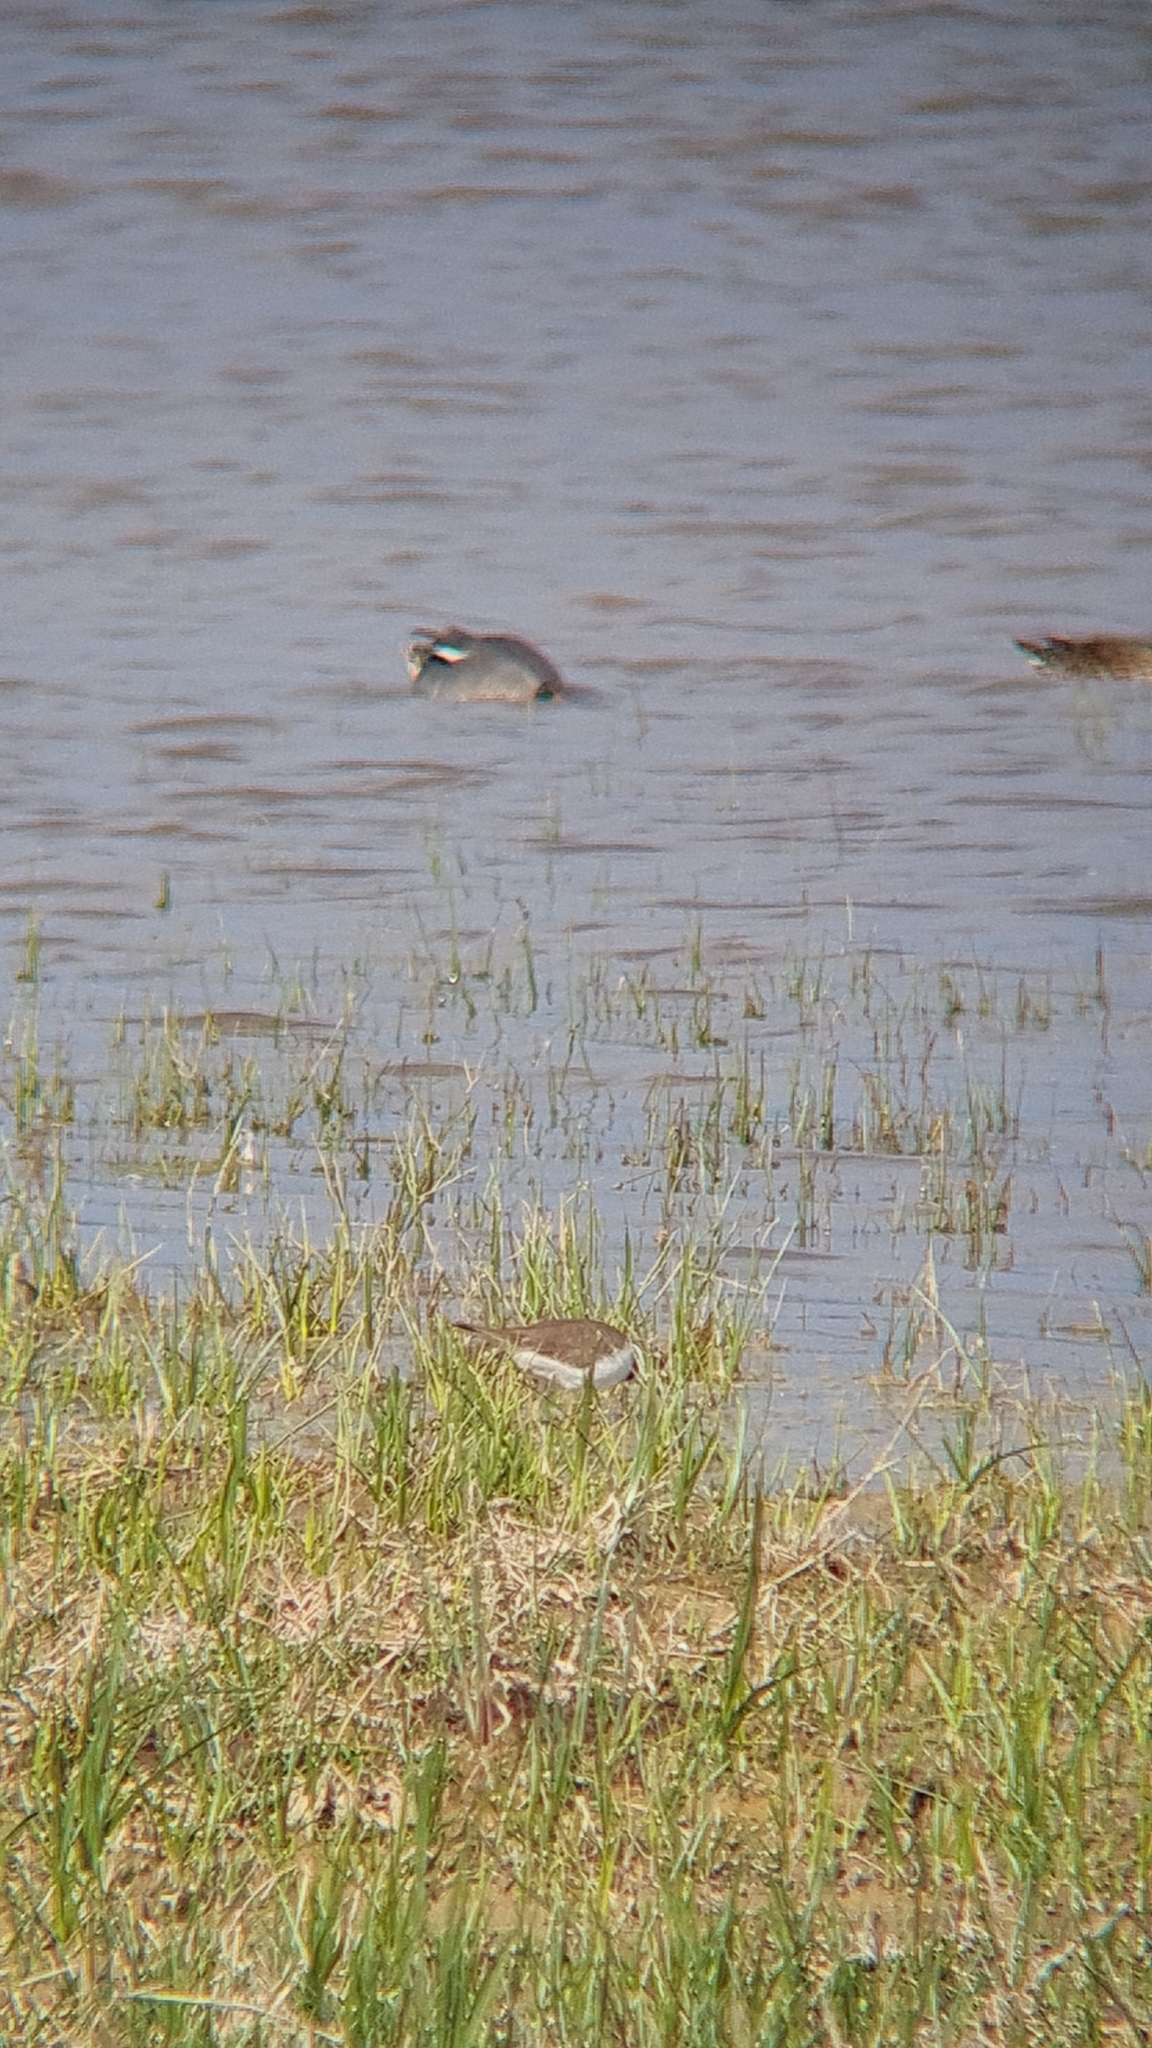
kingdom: Animalia
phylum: Chordata
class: Aves
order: Charadriiformes
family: Charadriidae
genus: Charadrius
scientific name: Charadrius dubius
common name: Little ringed plover
